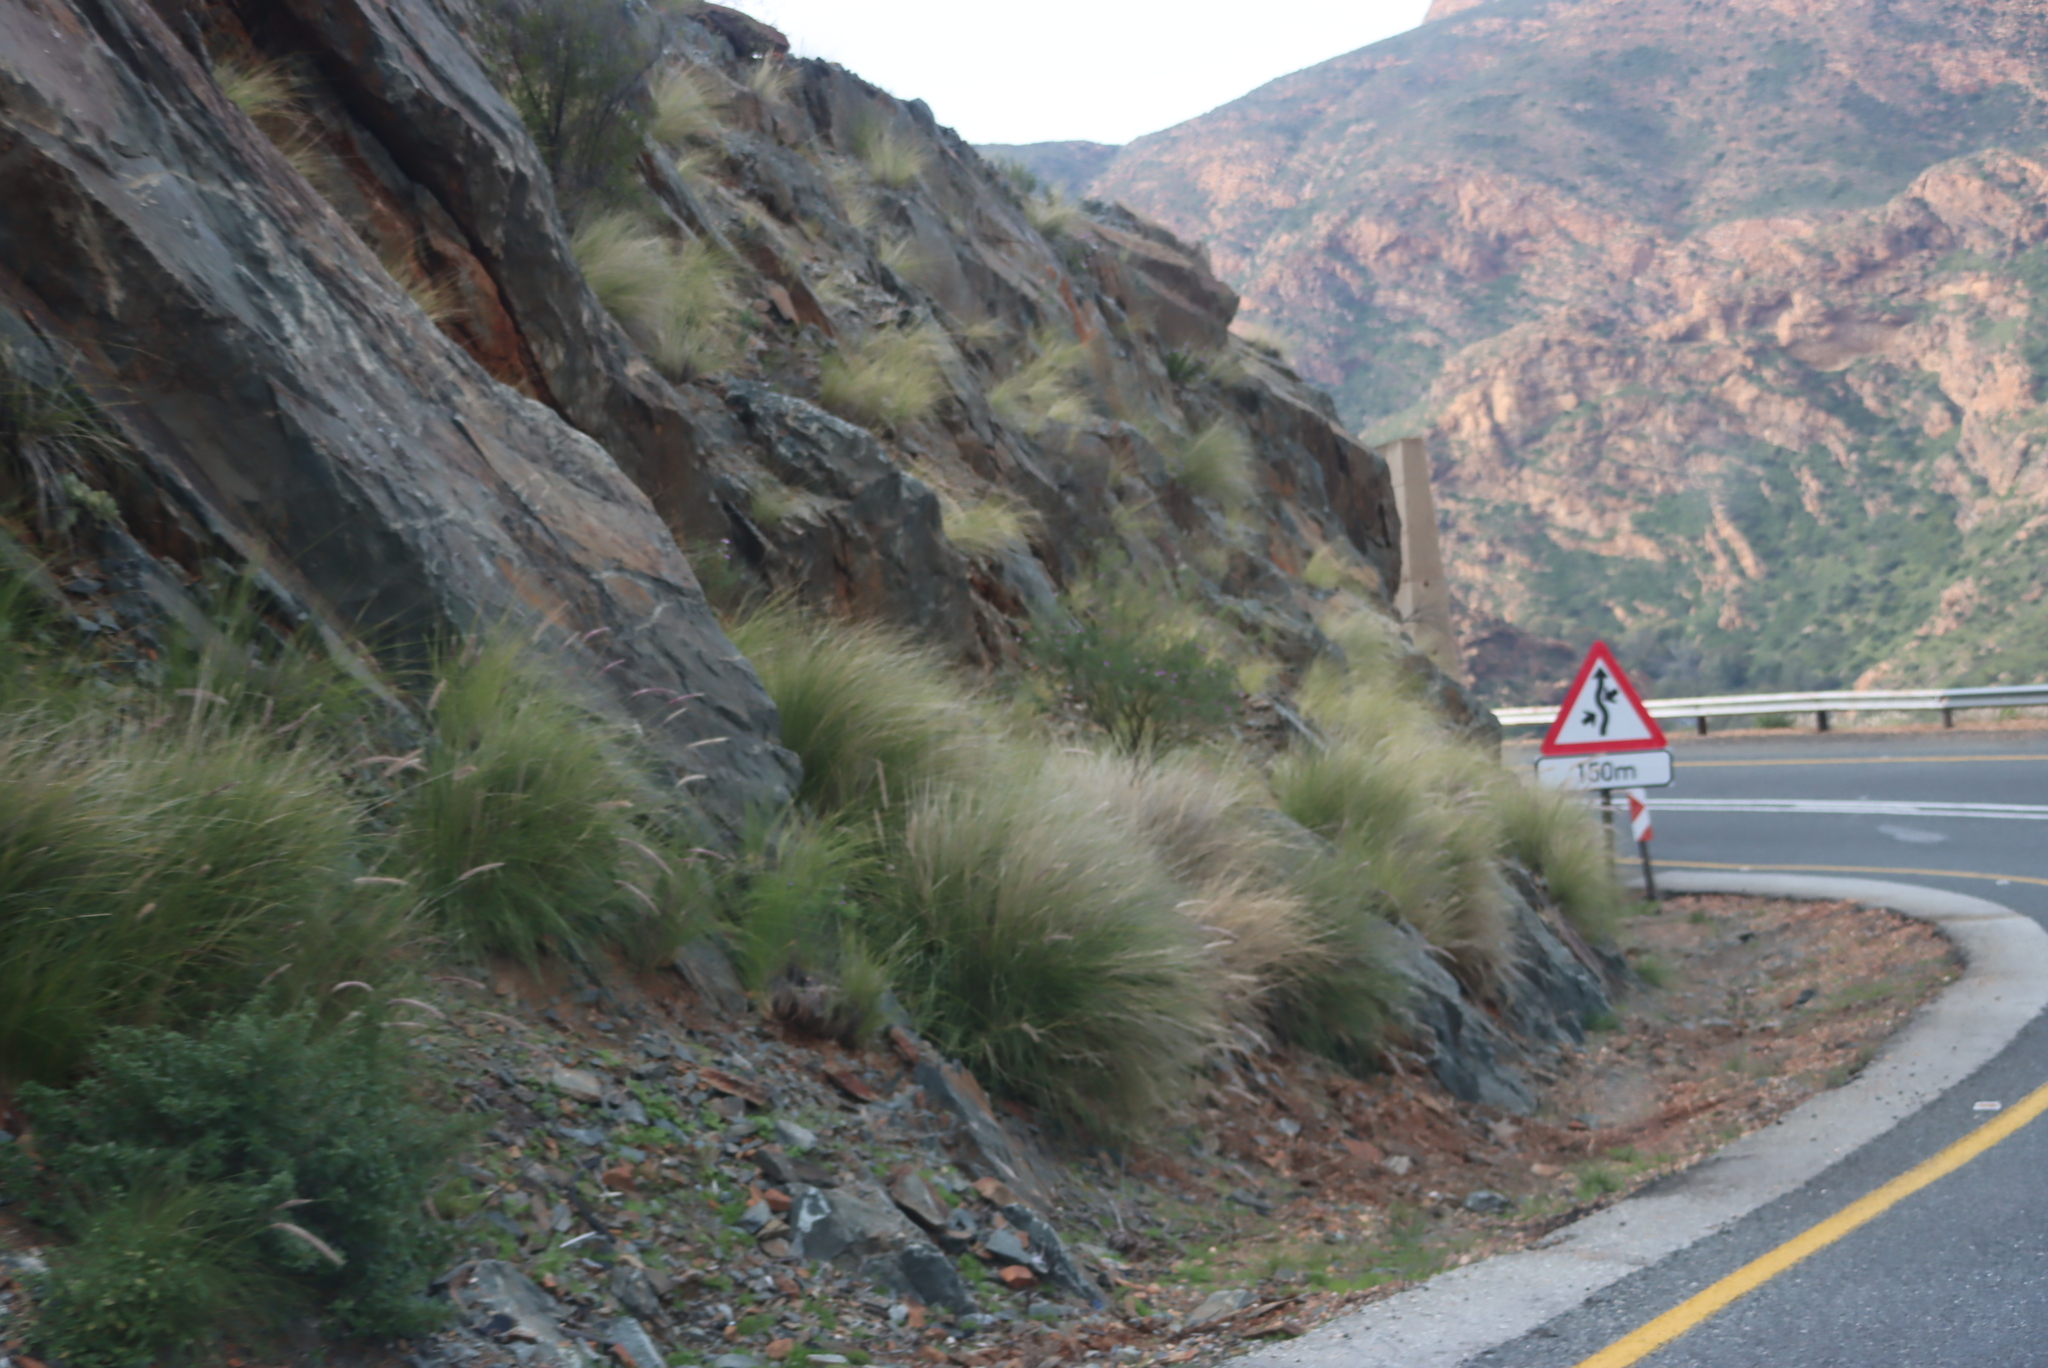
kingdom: Plantae
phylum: Tracheophyta
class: Liliopsida
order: Poales
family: Poaceae
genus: Cenchrus
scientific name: Cenchrus setaceus
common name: Crimson fountaingrass
